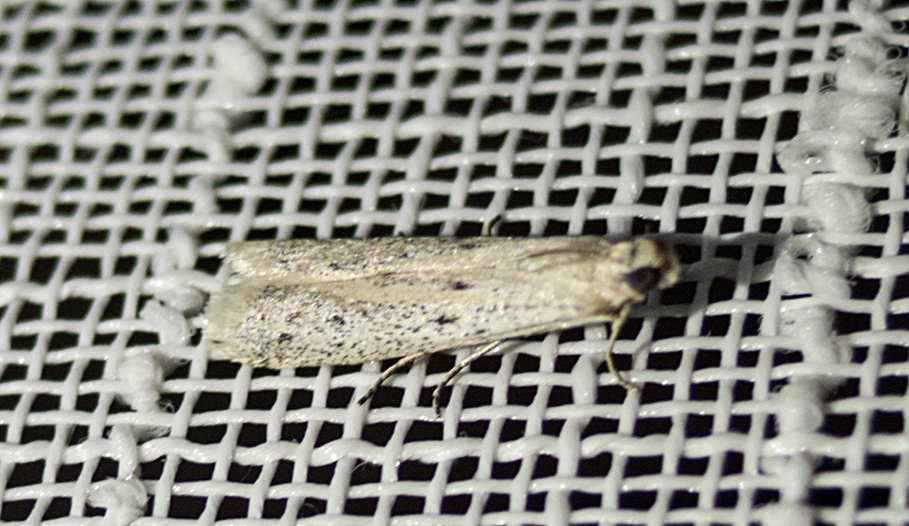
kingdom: Animalia
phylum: Arthropoda
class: Insecta
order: Lepidoptera
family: Pyralidae
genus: Phycitodes
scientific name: Phycitodes
